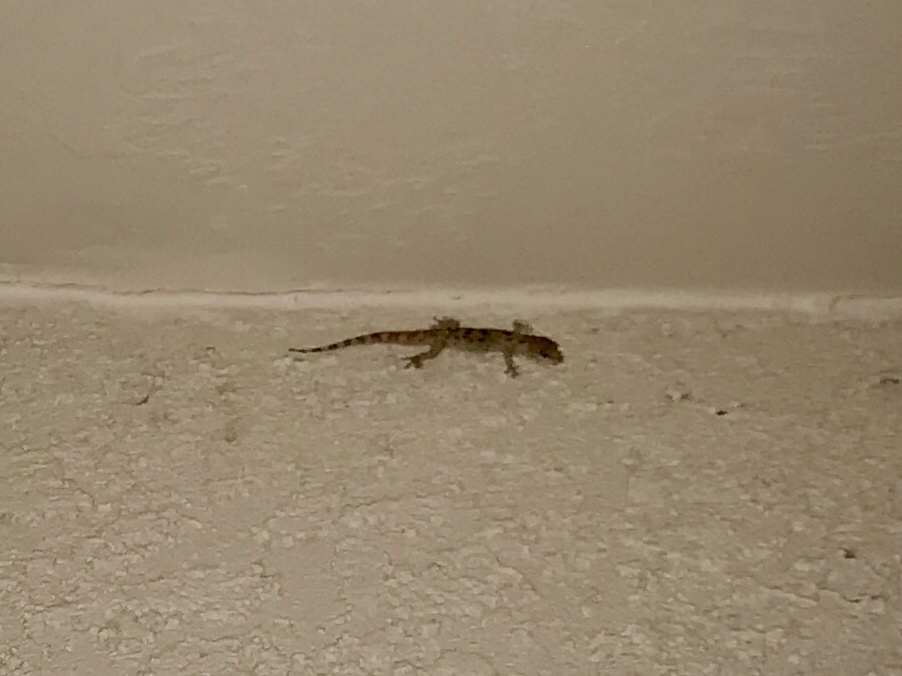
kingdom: Animalia
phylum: Chordata
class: Squamata
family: Gekkonidae
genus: Hemidactylus
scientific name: Hemidactylus turcicus
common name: Turkish gecko
